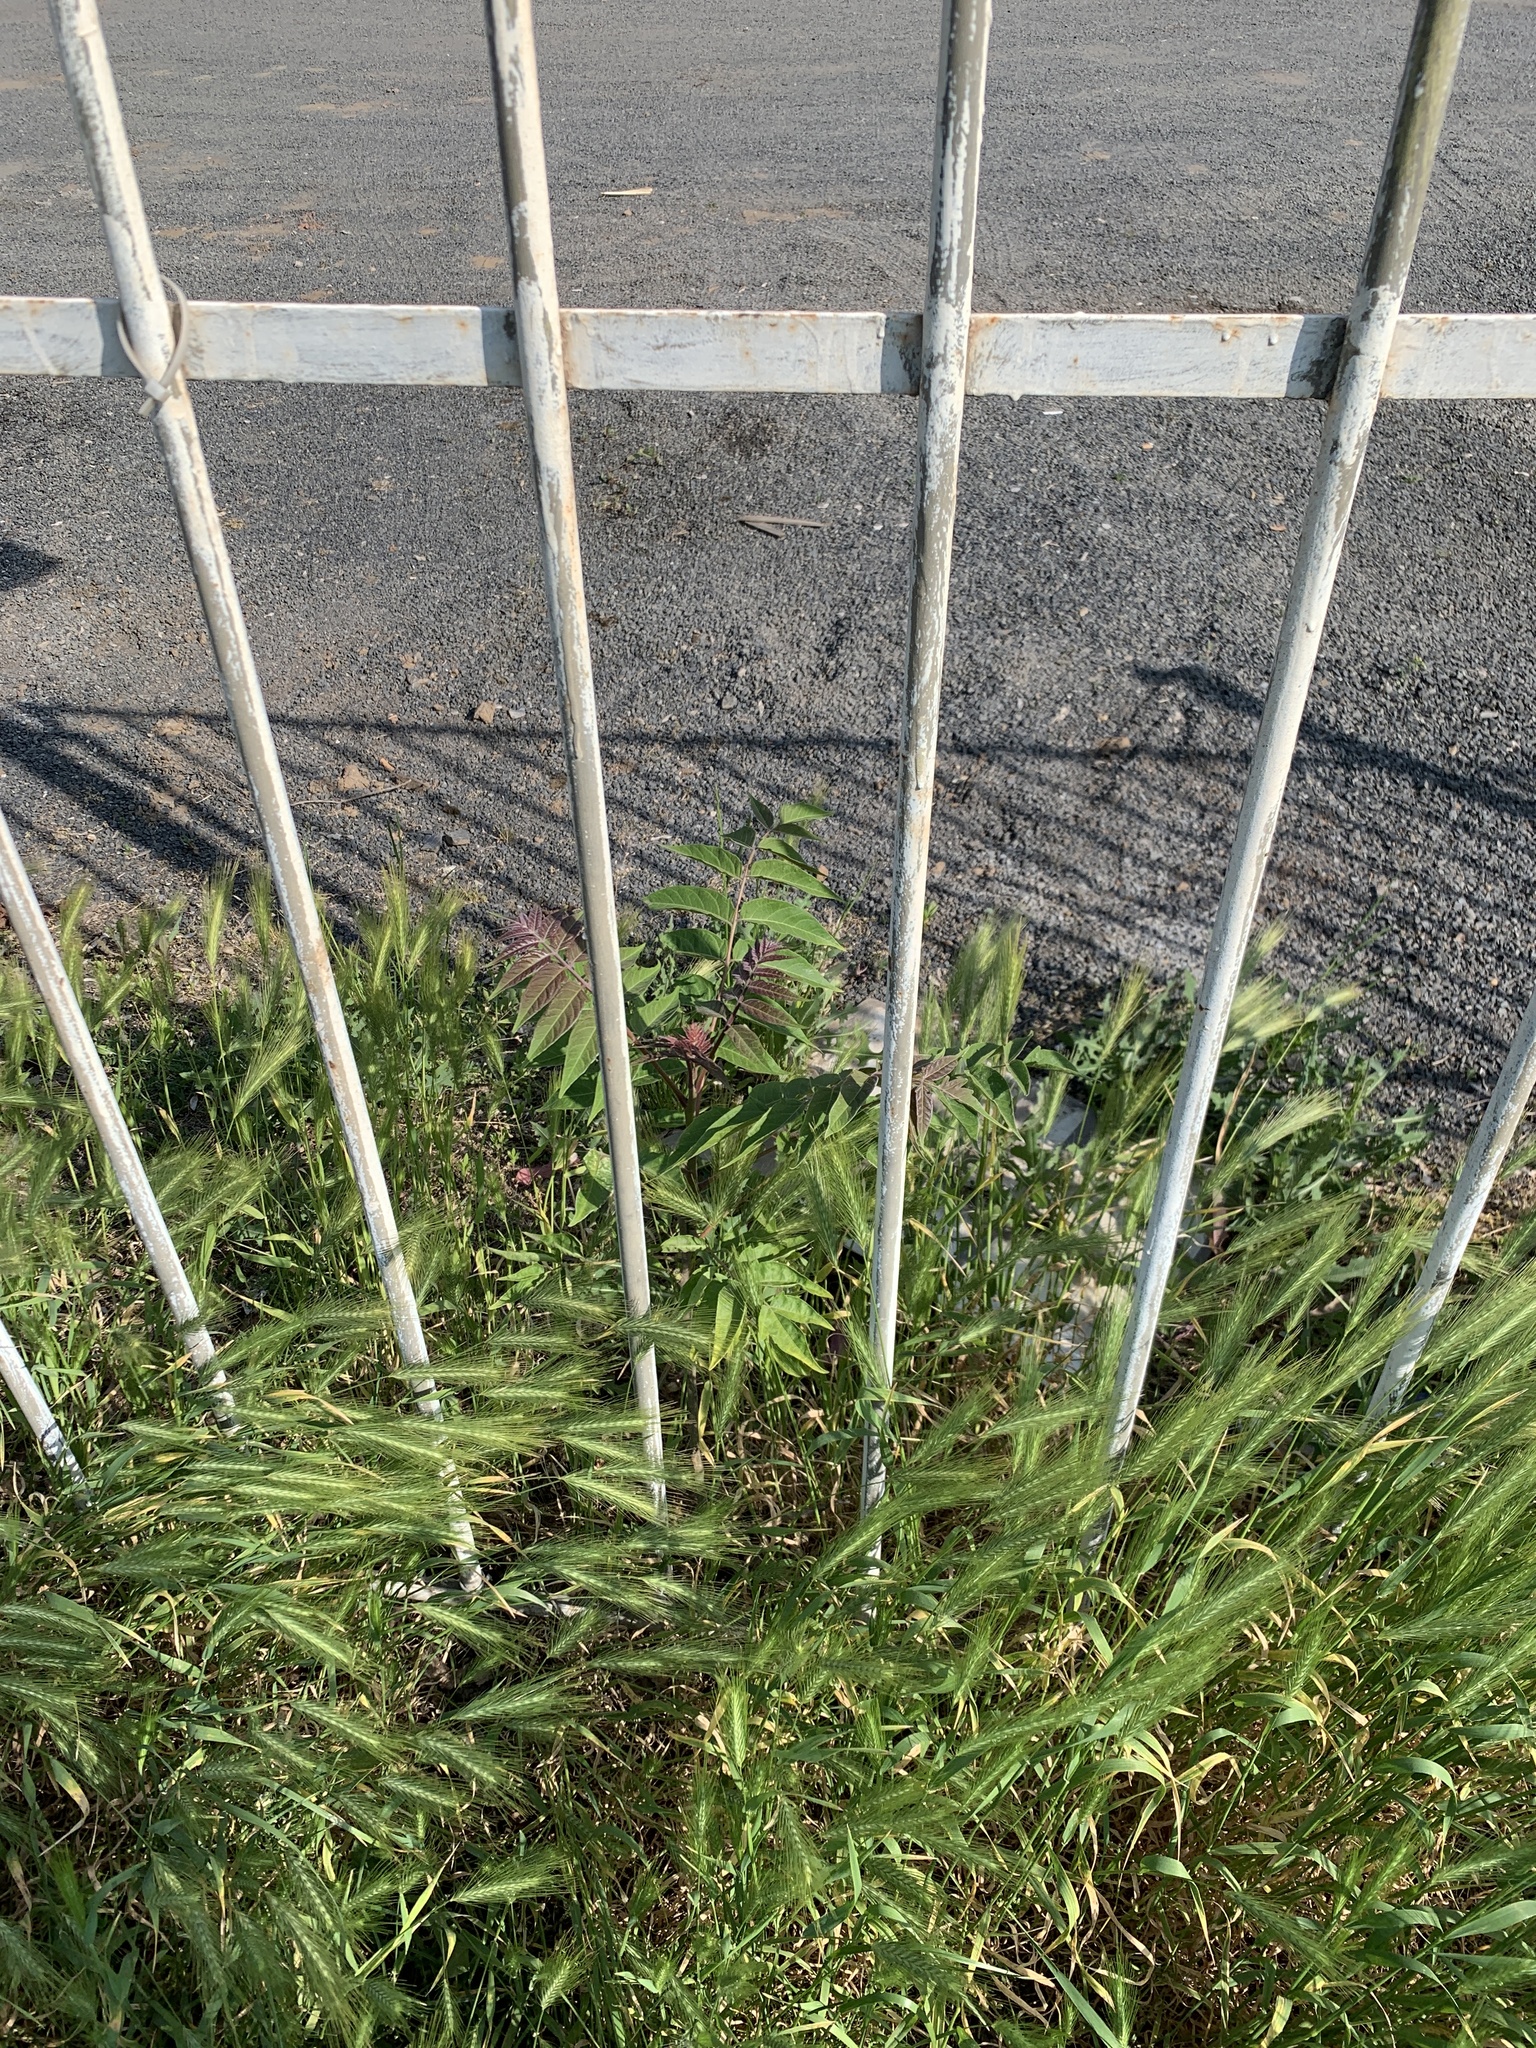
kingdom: Plantae
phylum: Tracheophyta
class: Magnoliopsida
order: Sapindales
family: Simaroubaceae
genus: Ailanthus
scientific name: Ailanthus altissima
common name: Tree-of-heaven
